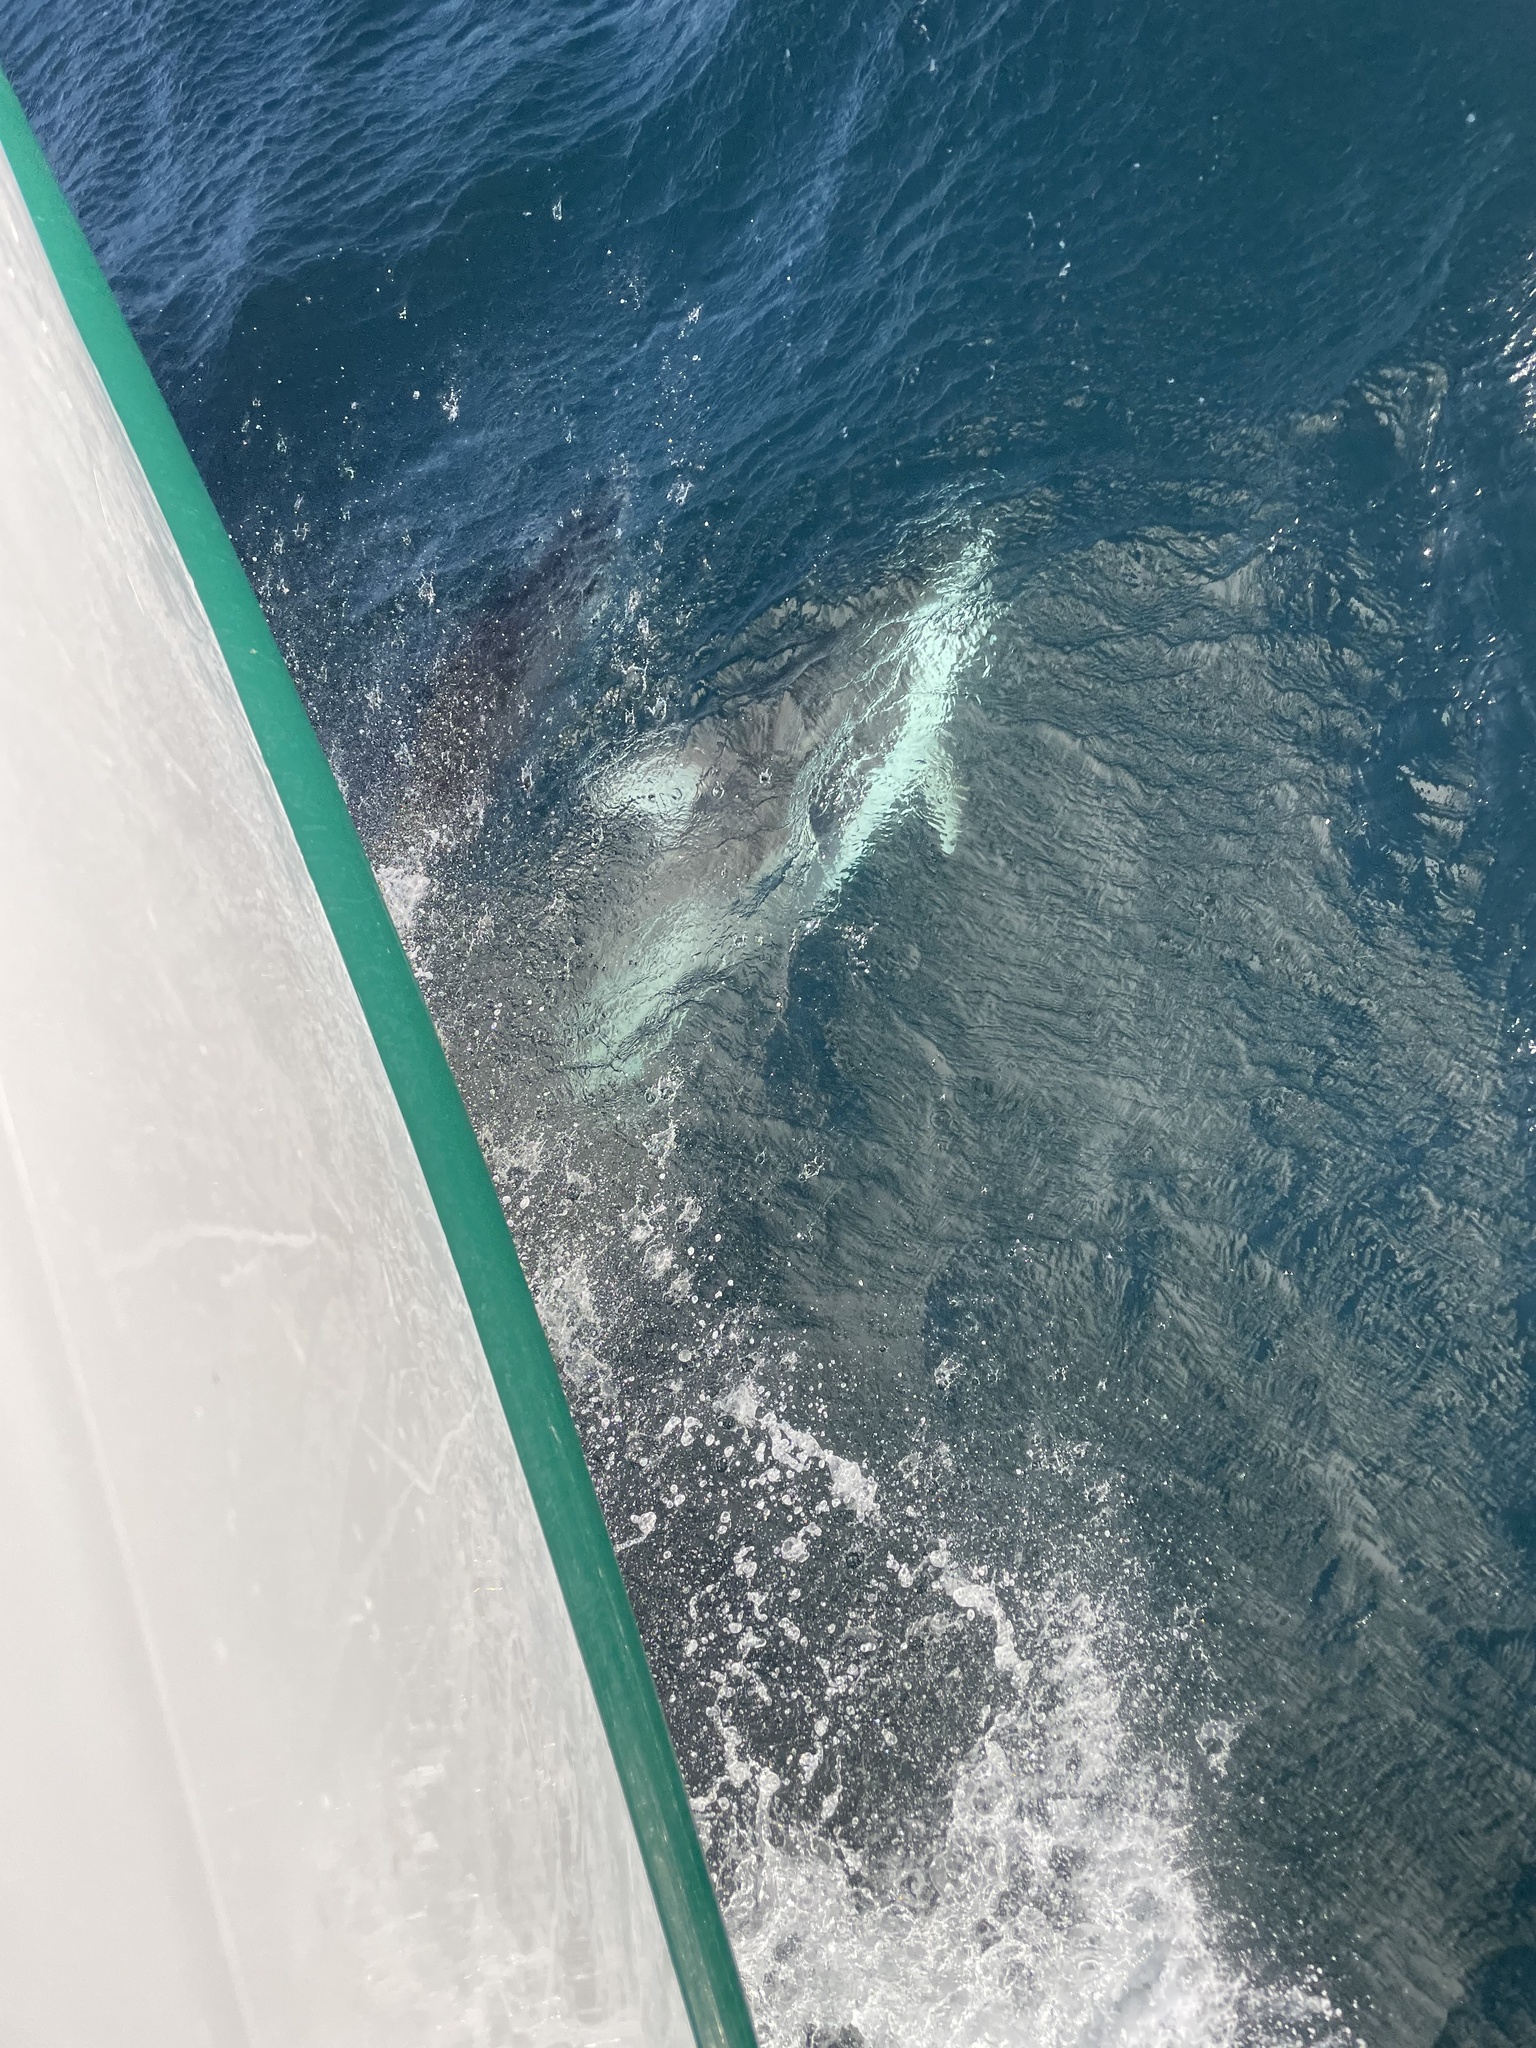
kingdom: Animalia
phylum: Chordata
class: Mammalia
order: Cetacea
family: Delphinidae
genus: Lagenorhynchus
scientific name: Lagenorhynchus obliquidens
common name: Pacific white-sided dolphin
